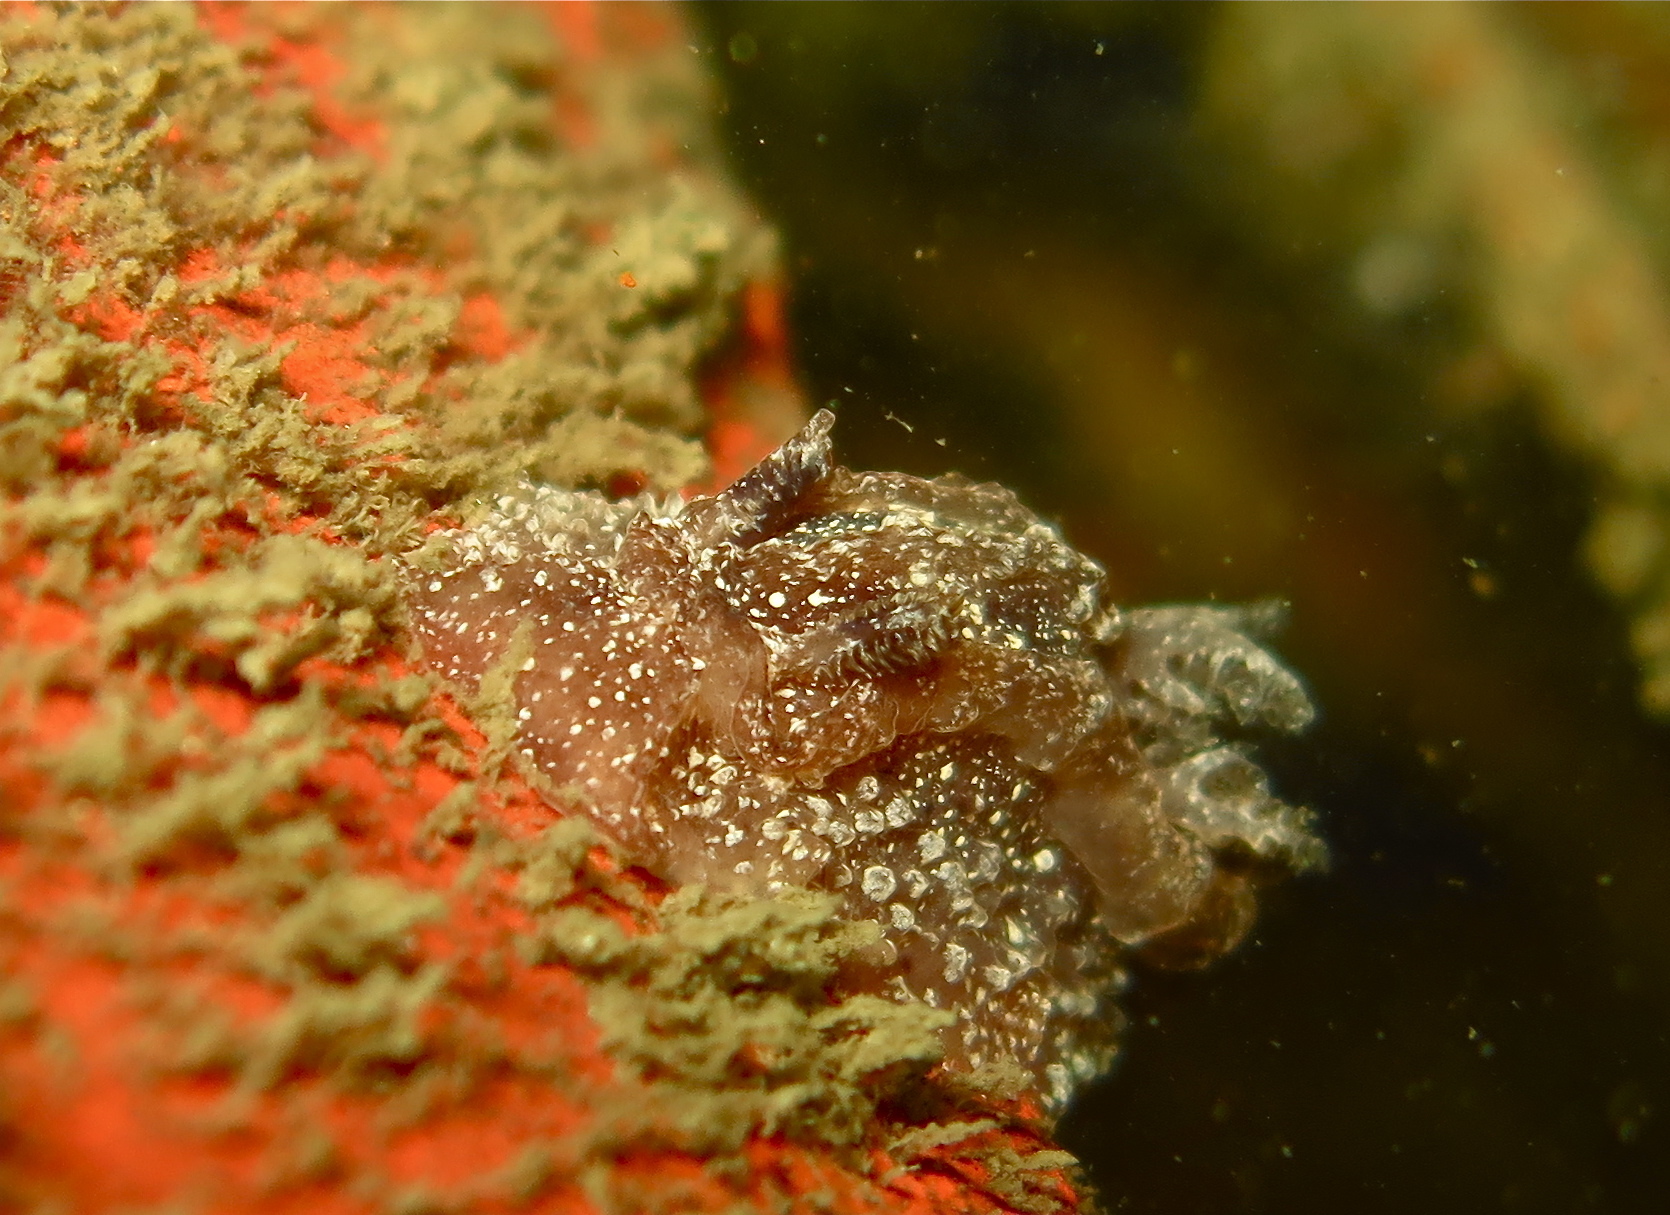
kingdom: Animalia
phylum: Mollusca
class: Gastropoda
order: Nudibranchia
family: Goniodorididae
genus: Pelagella
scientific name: Pelagella castanea
